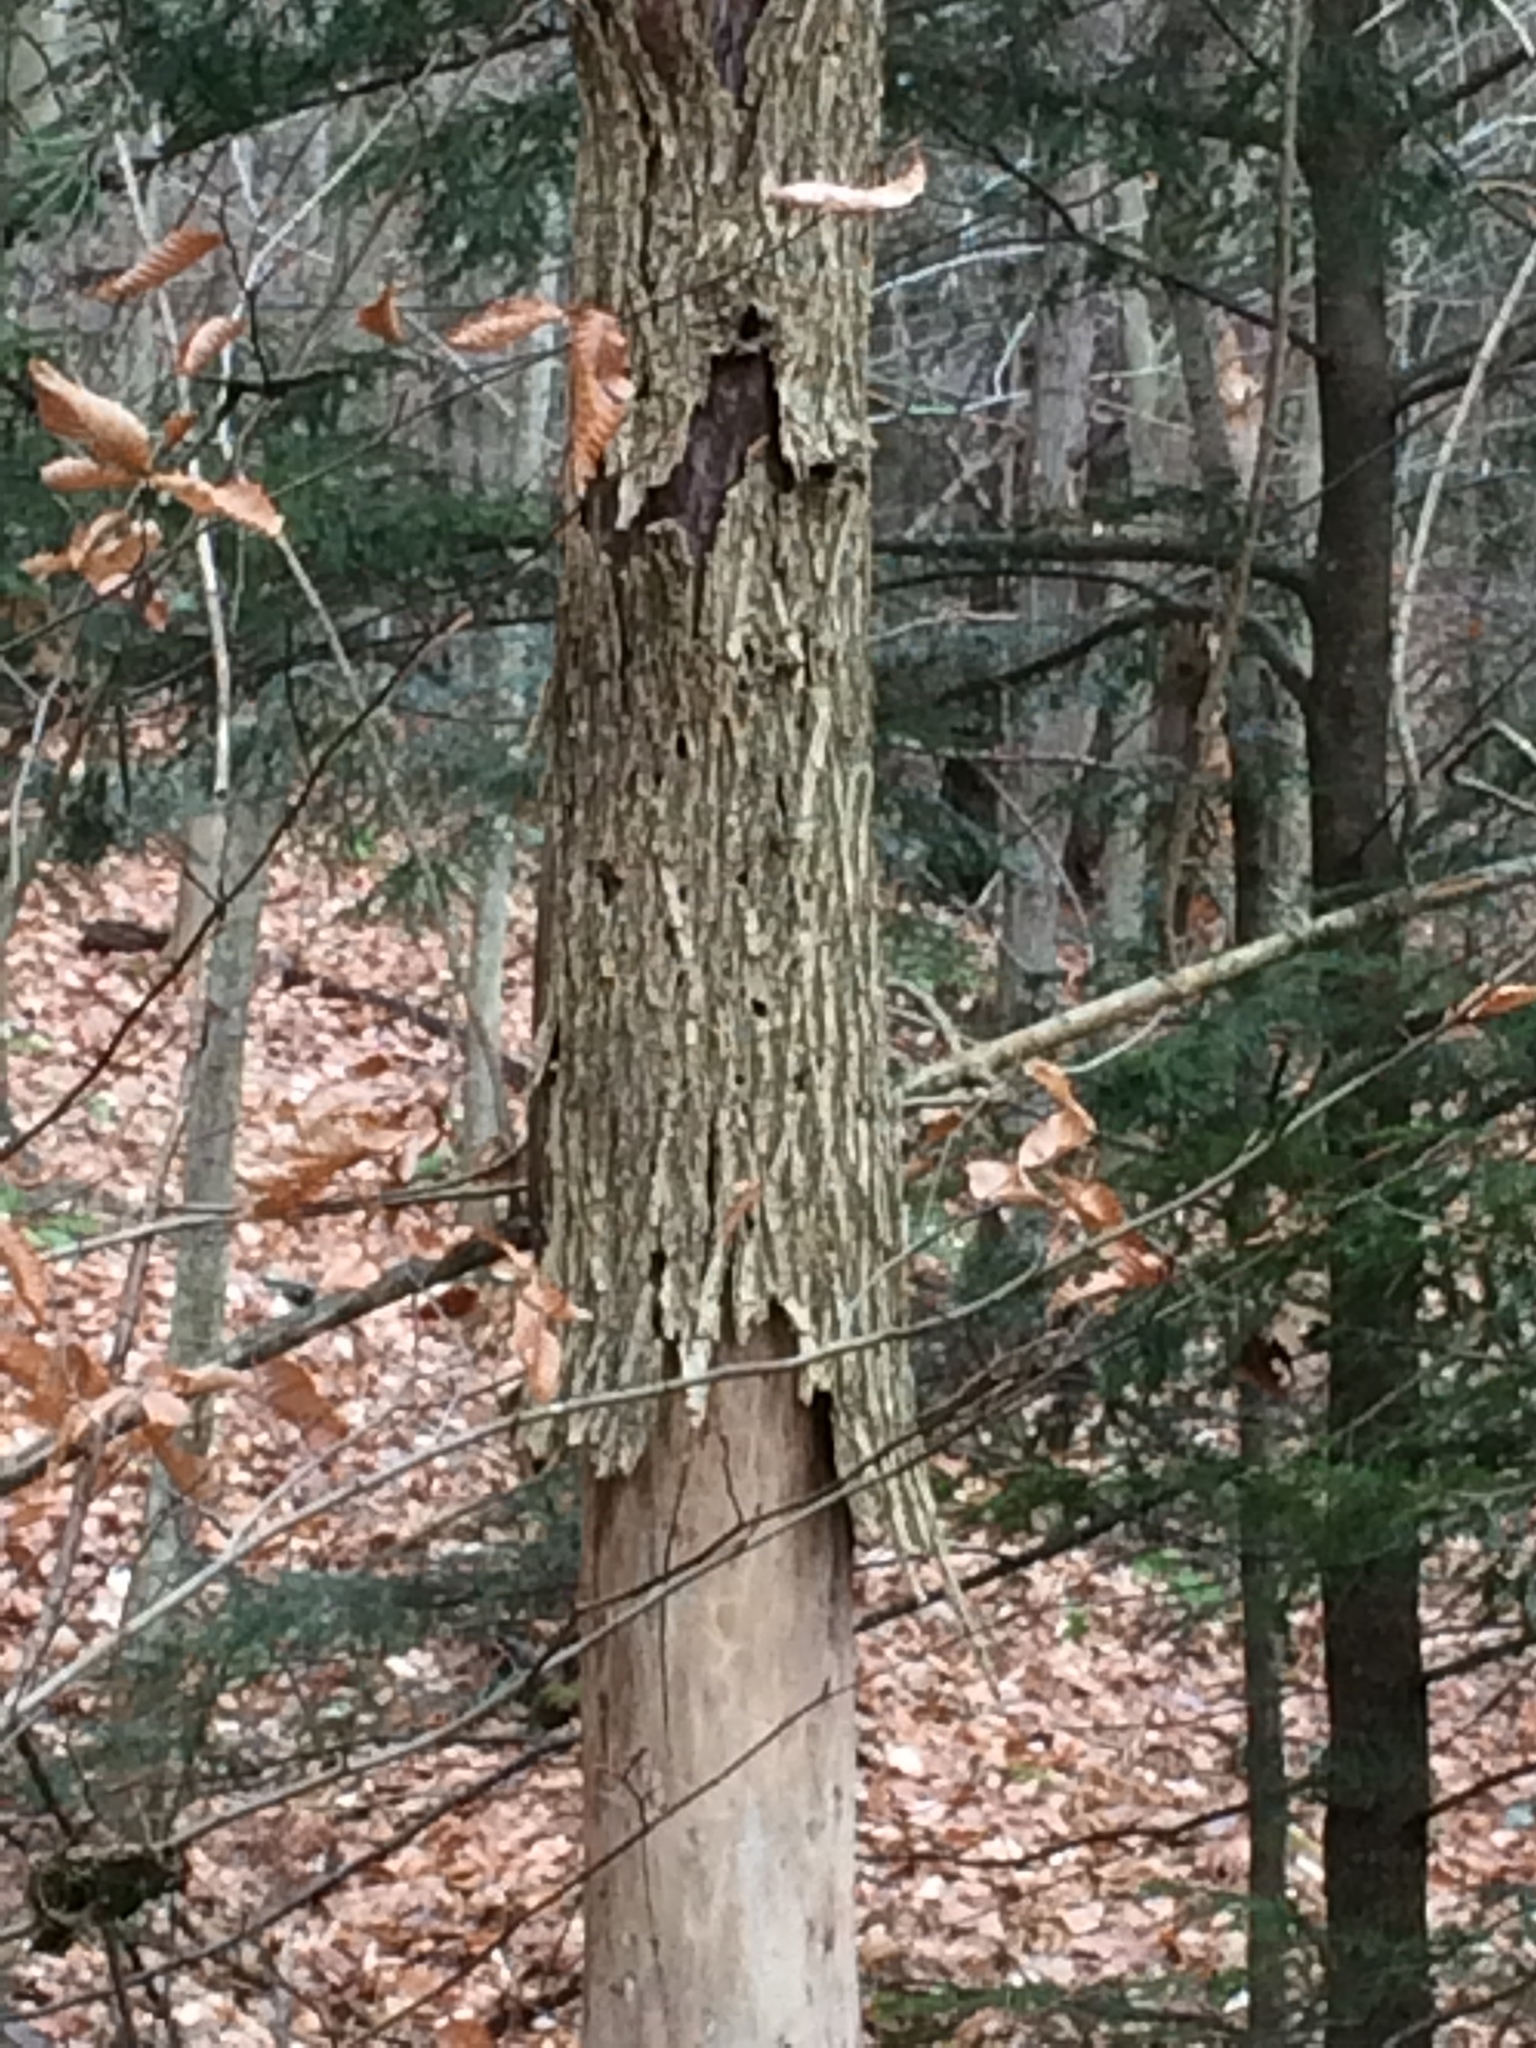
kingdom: Plantae
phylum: Tracheophyta
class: Magnoliopsida
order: Rosales
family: Ulmaceae
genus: Ulmus
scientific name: Ulmus americana
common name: American elm
